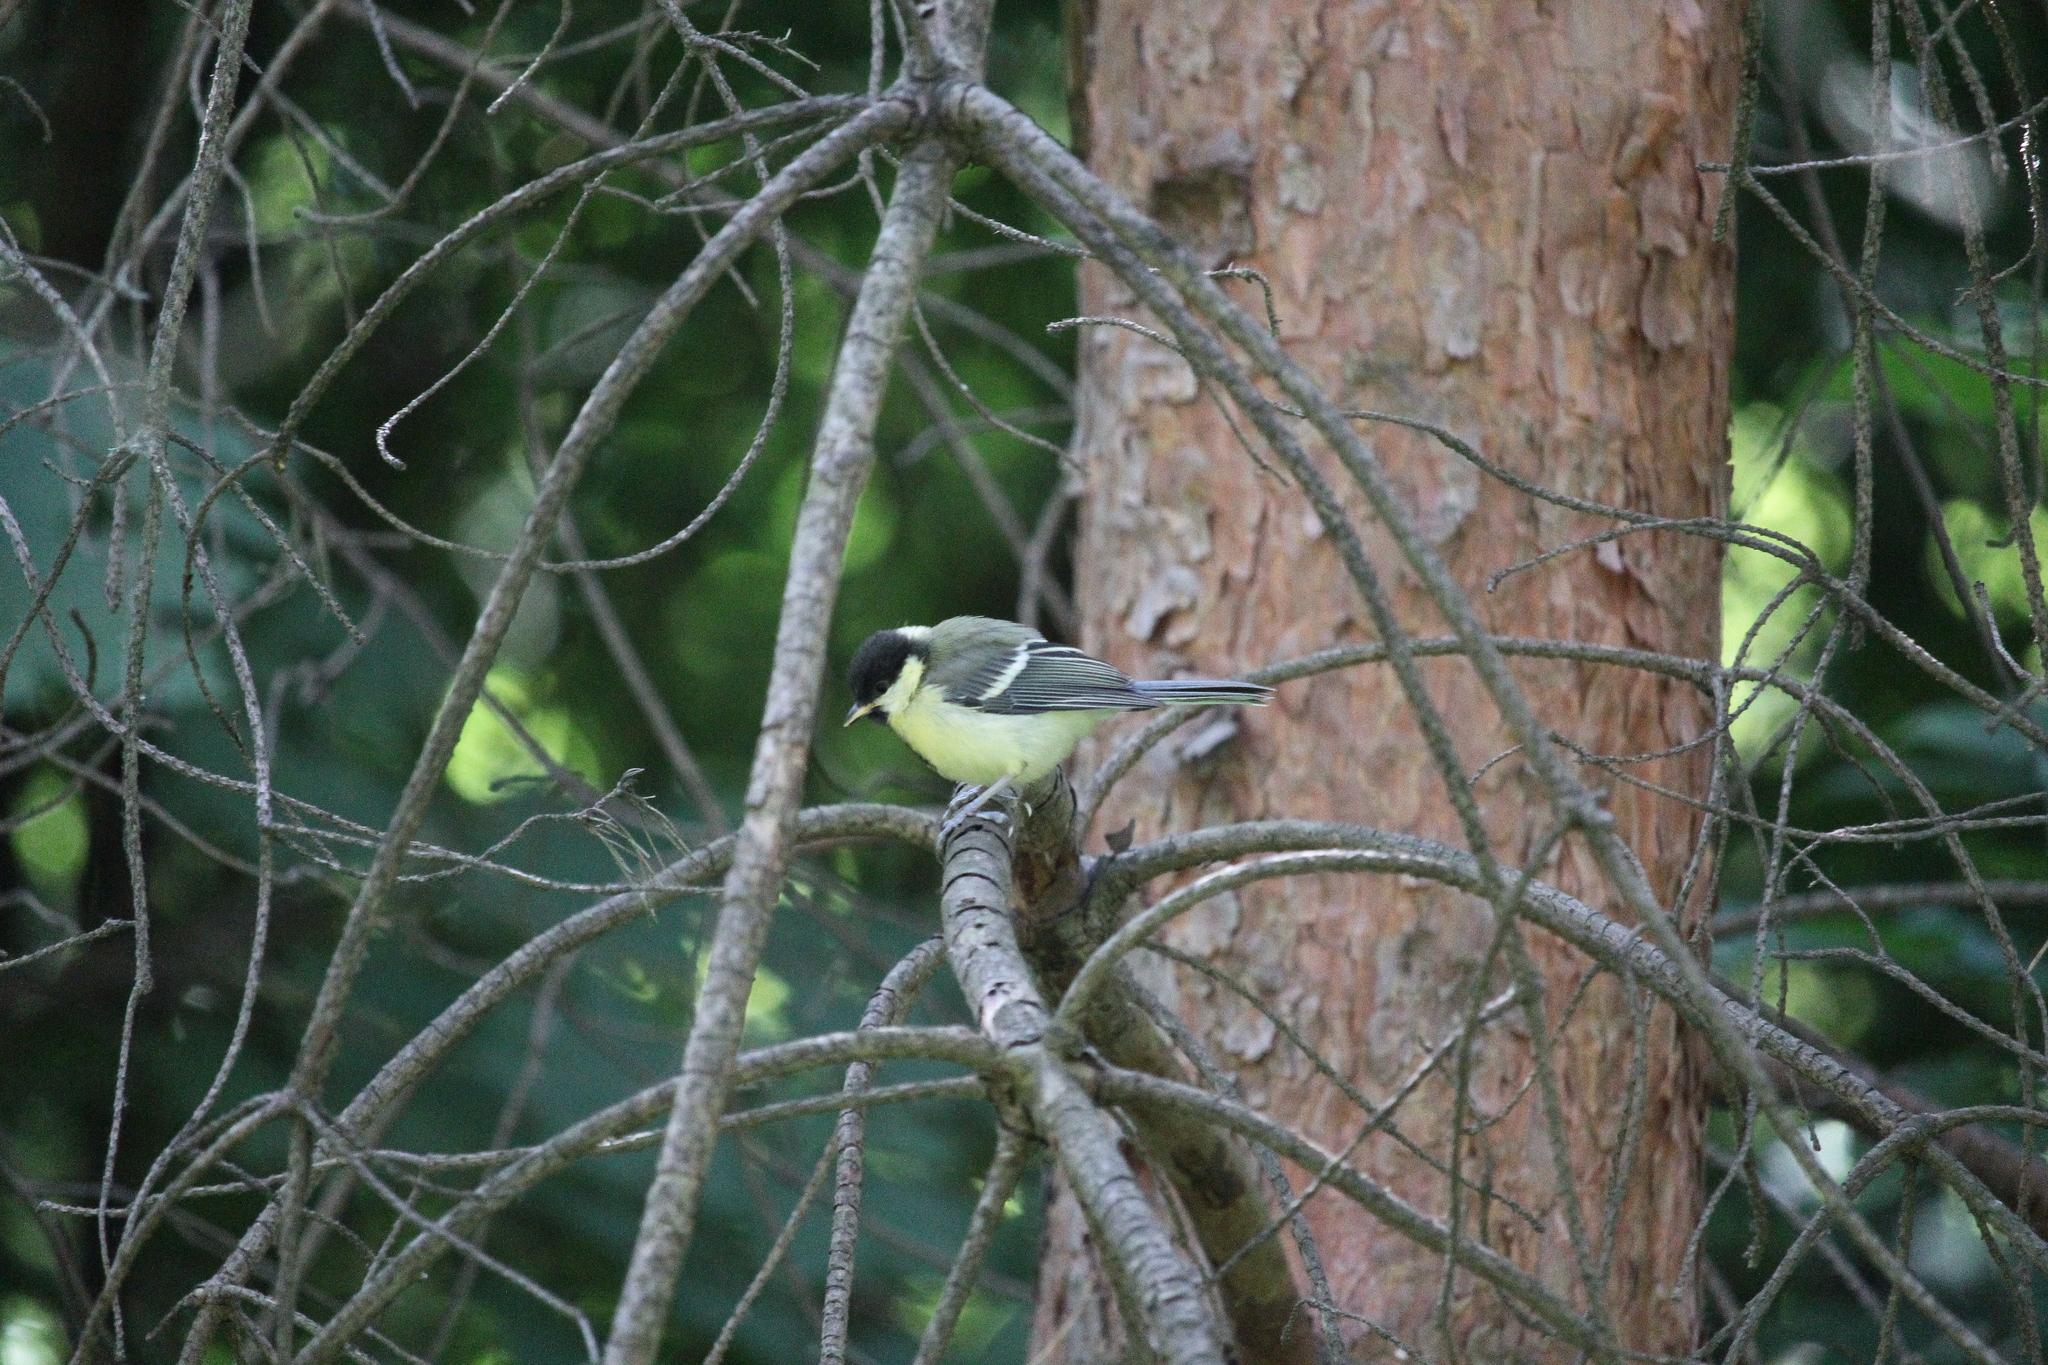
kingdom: Animalia
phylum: Chordata
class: Aves
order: Passeriformes
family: Paridae
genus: Parus
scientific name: Parus major
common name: Great tit
